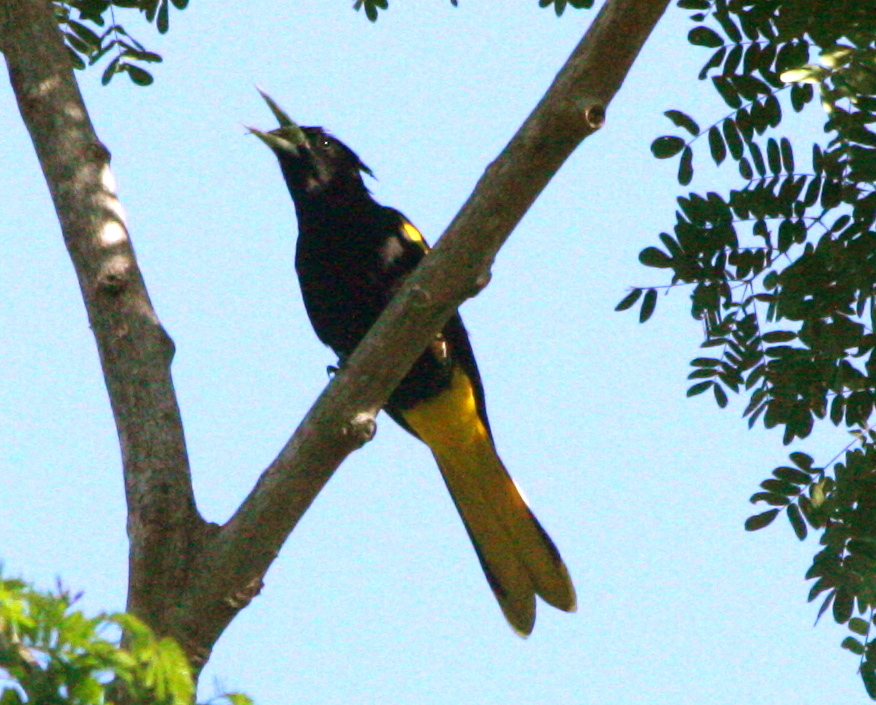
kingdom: Animalia
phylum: Chordata
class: Aves
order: Passeriformes
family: Icteridae
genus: Cacicus
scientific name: Cacicus melanicterus
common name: Yellow-winged cacique
